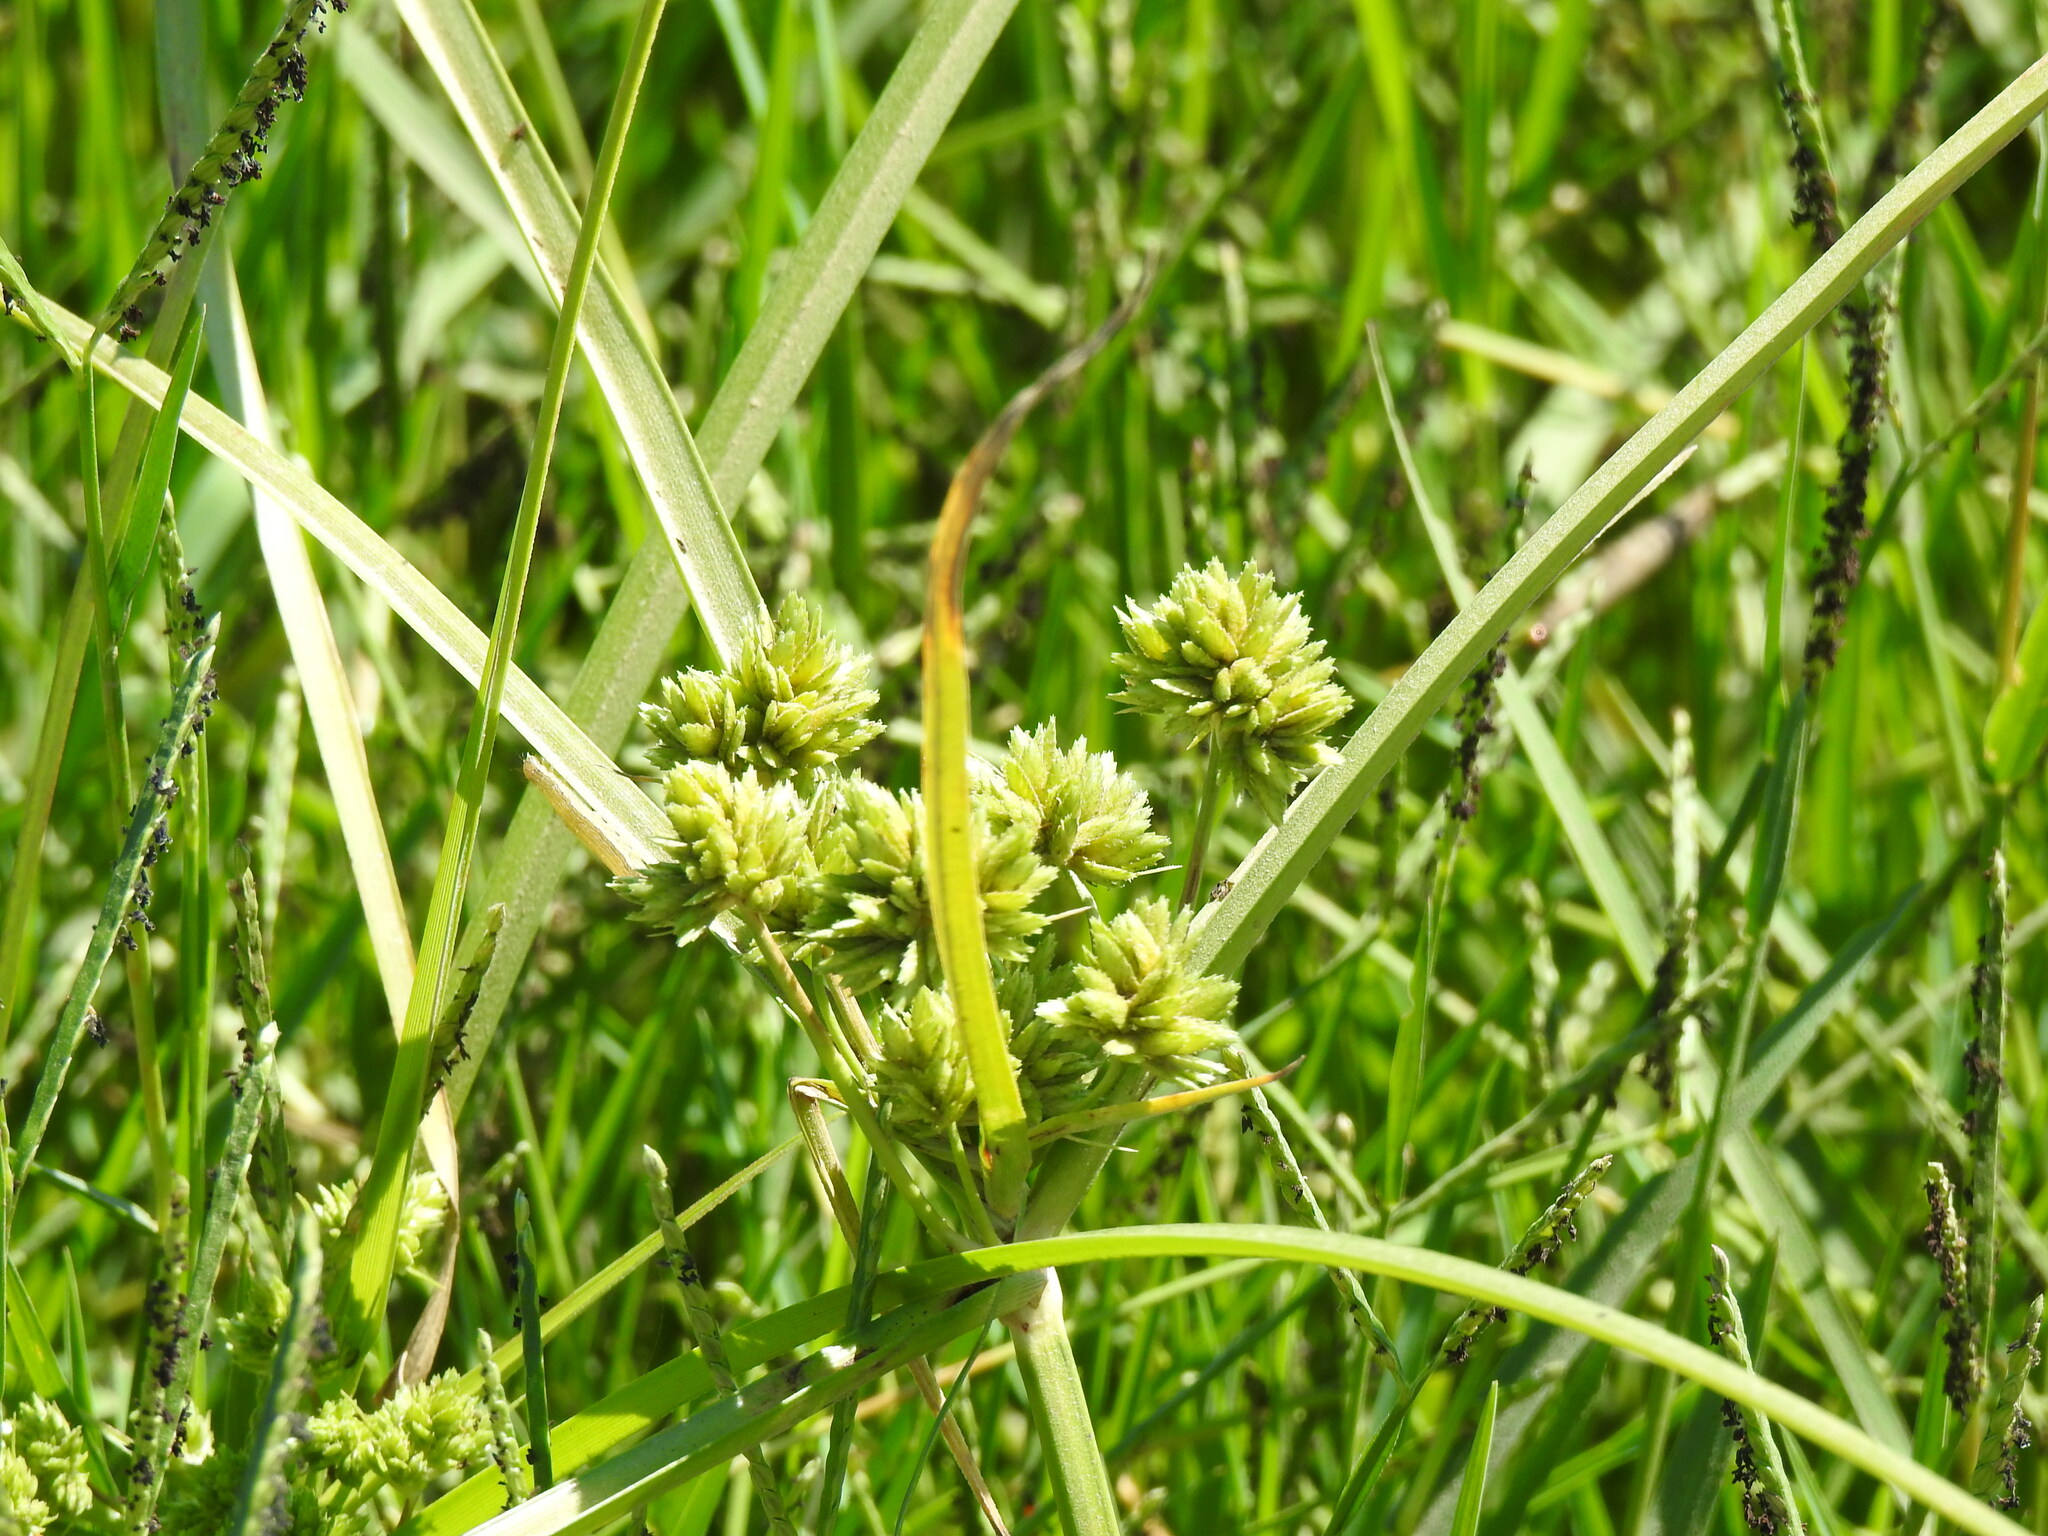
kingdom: Plantae
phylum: Tracheophyta
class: Liliopsida
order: Poales
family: Cyperaceae
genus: Cyperus
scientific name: Cyperus eragrostis
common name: Tall flatsedge
